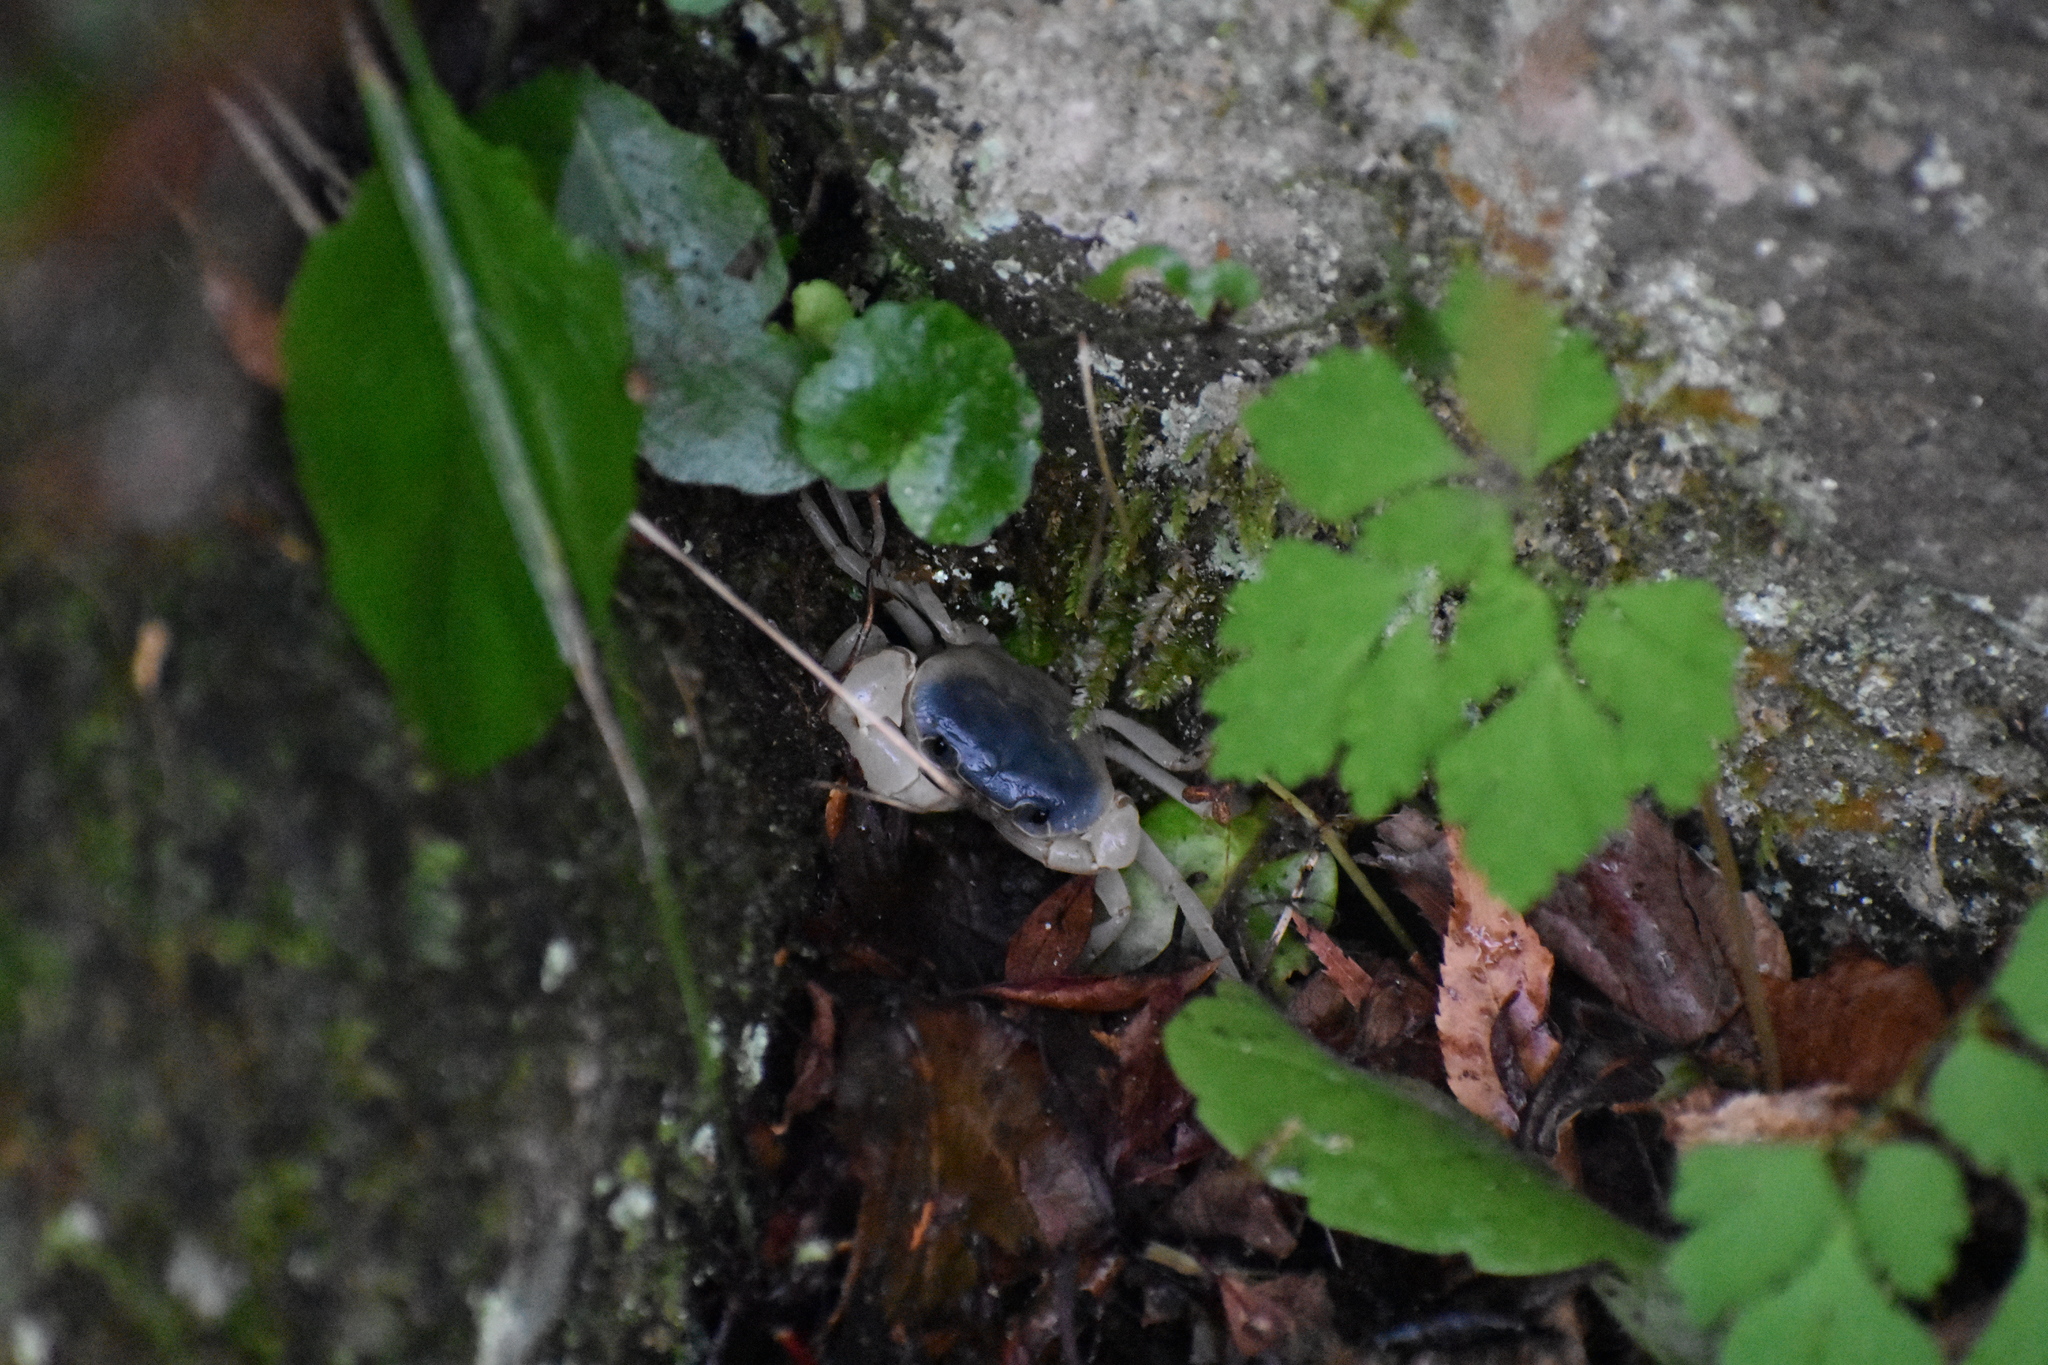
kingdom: Animalia
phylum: Arthropoda
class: Malacostraca
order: Decapoda
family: Potamidae
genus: Geothelphusa
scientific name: Geothelphusa dehaani
